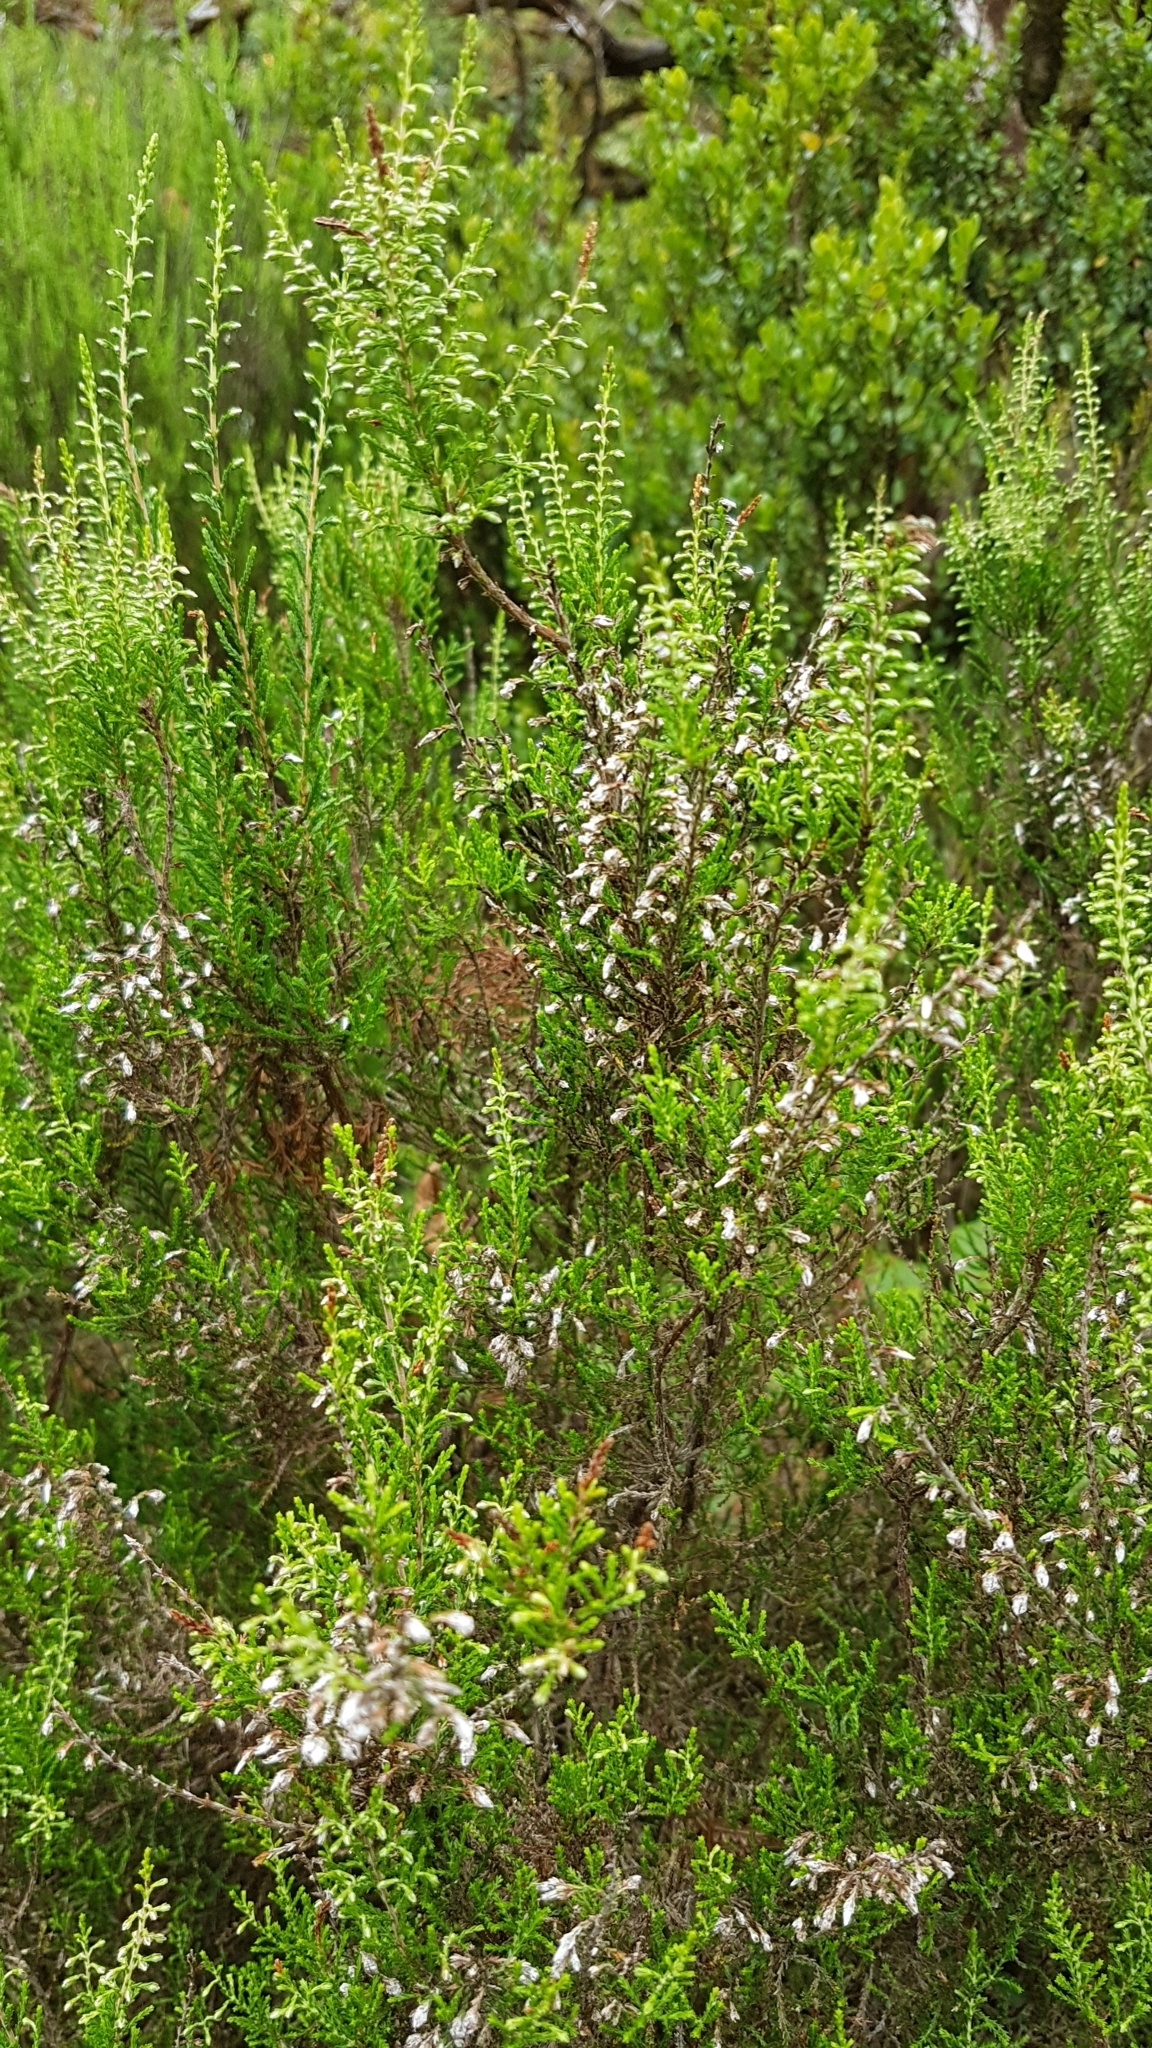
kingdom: Plantae
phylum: Tracheophyta
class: Magnoliopsida
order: Ericales
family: Ericaceae
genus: Calluna
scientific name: Calluna vulgaris
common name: Heather
